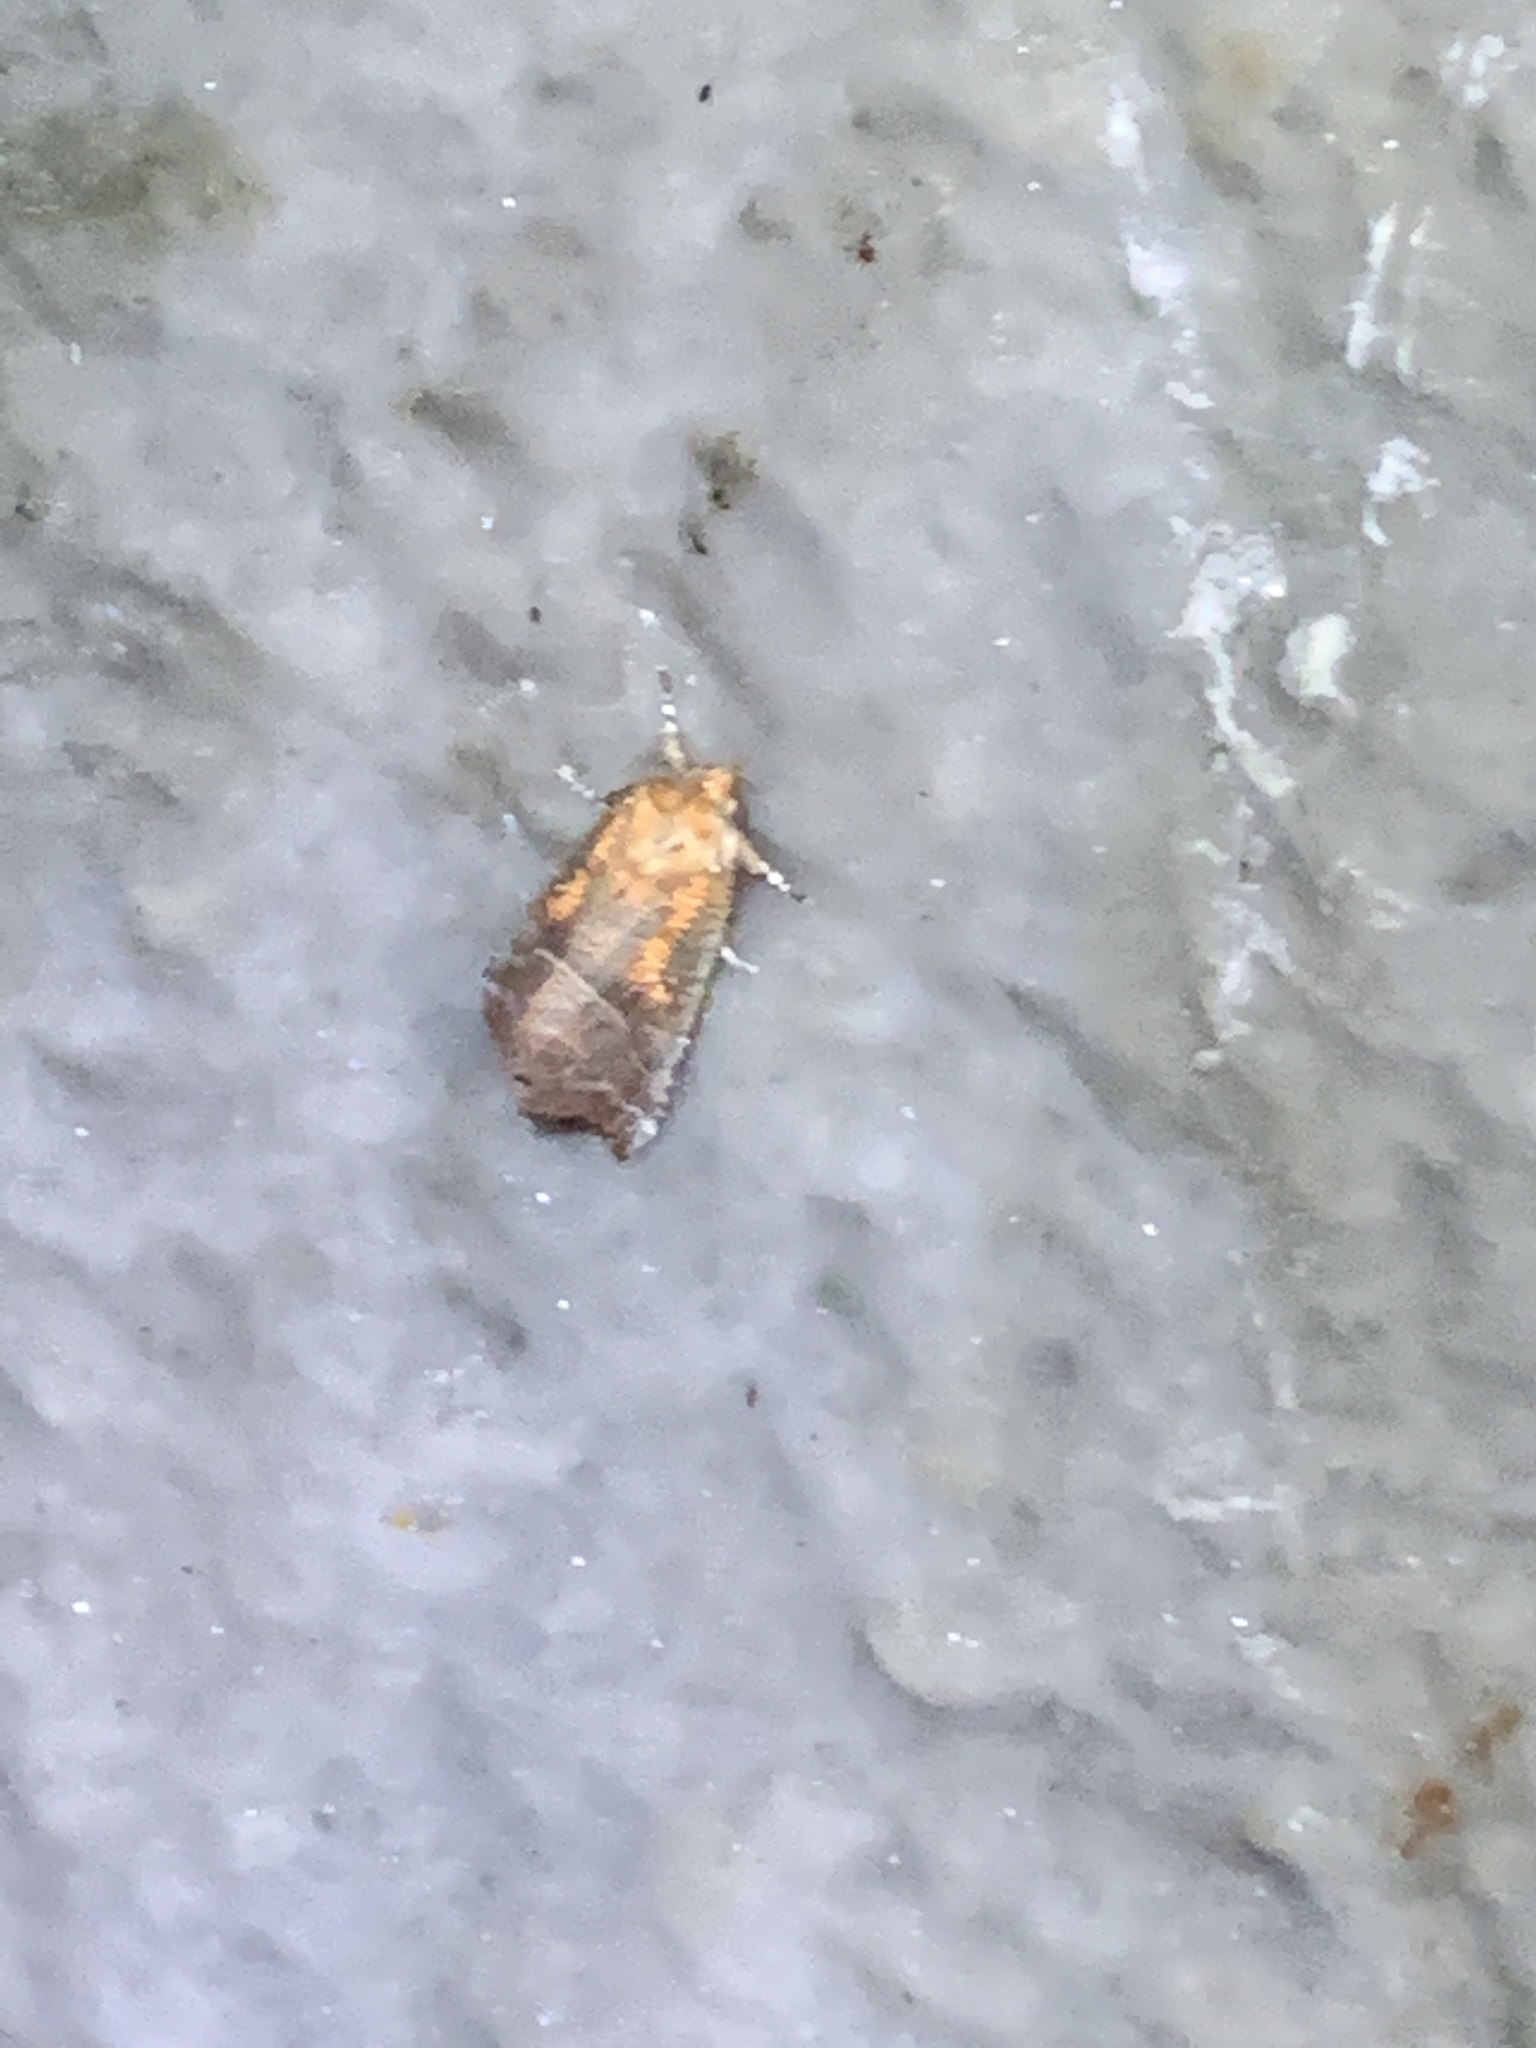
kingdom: Animalia
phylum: Arthropoda
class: Insecta
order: Lepidoptera
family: Erebidae
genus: Scoliopteryx
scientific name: Scoliopteryx libatrix
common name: Herald
